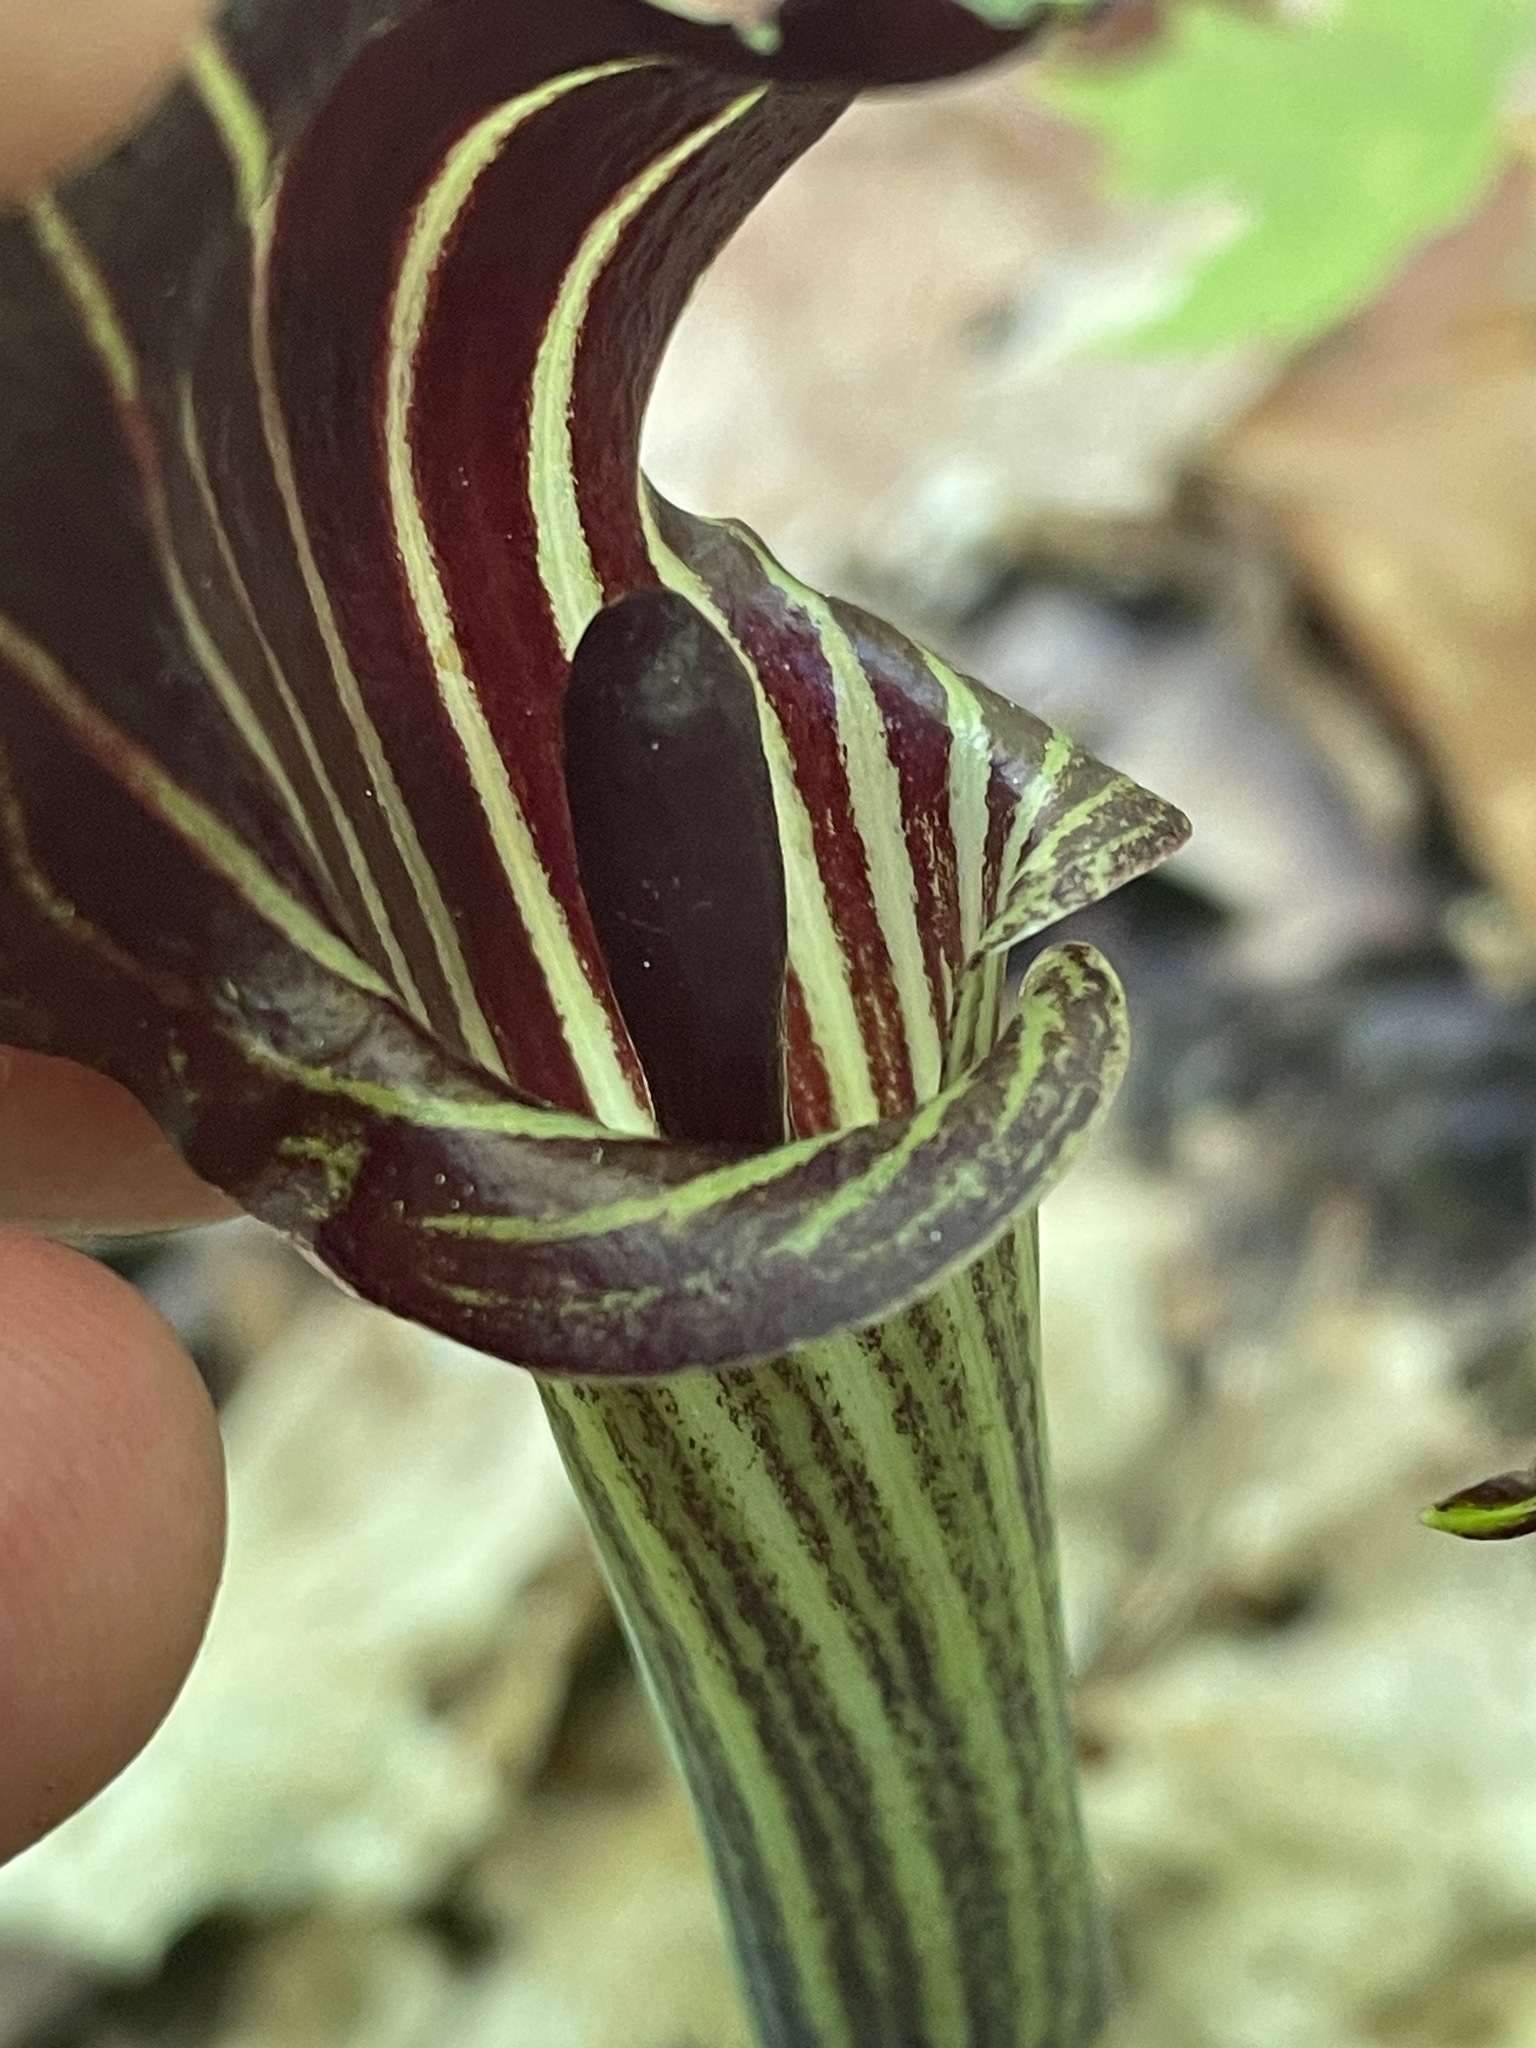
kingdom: Plantae
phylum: Tracheophyta
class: Liliopsida
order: Alismatales
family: Araceae
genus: Arisaema
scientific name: Arisaema triphyllum
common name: Jack-in-the-pulpit
